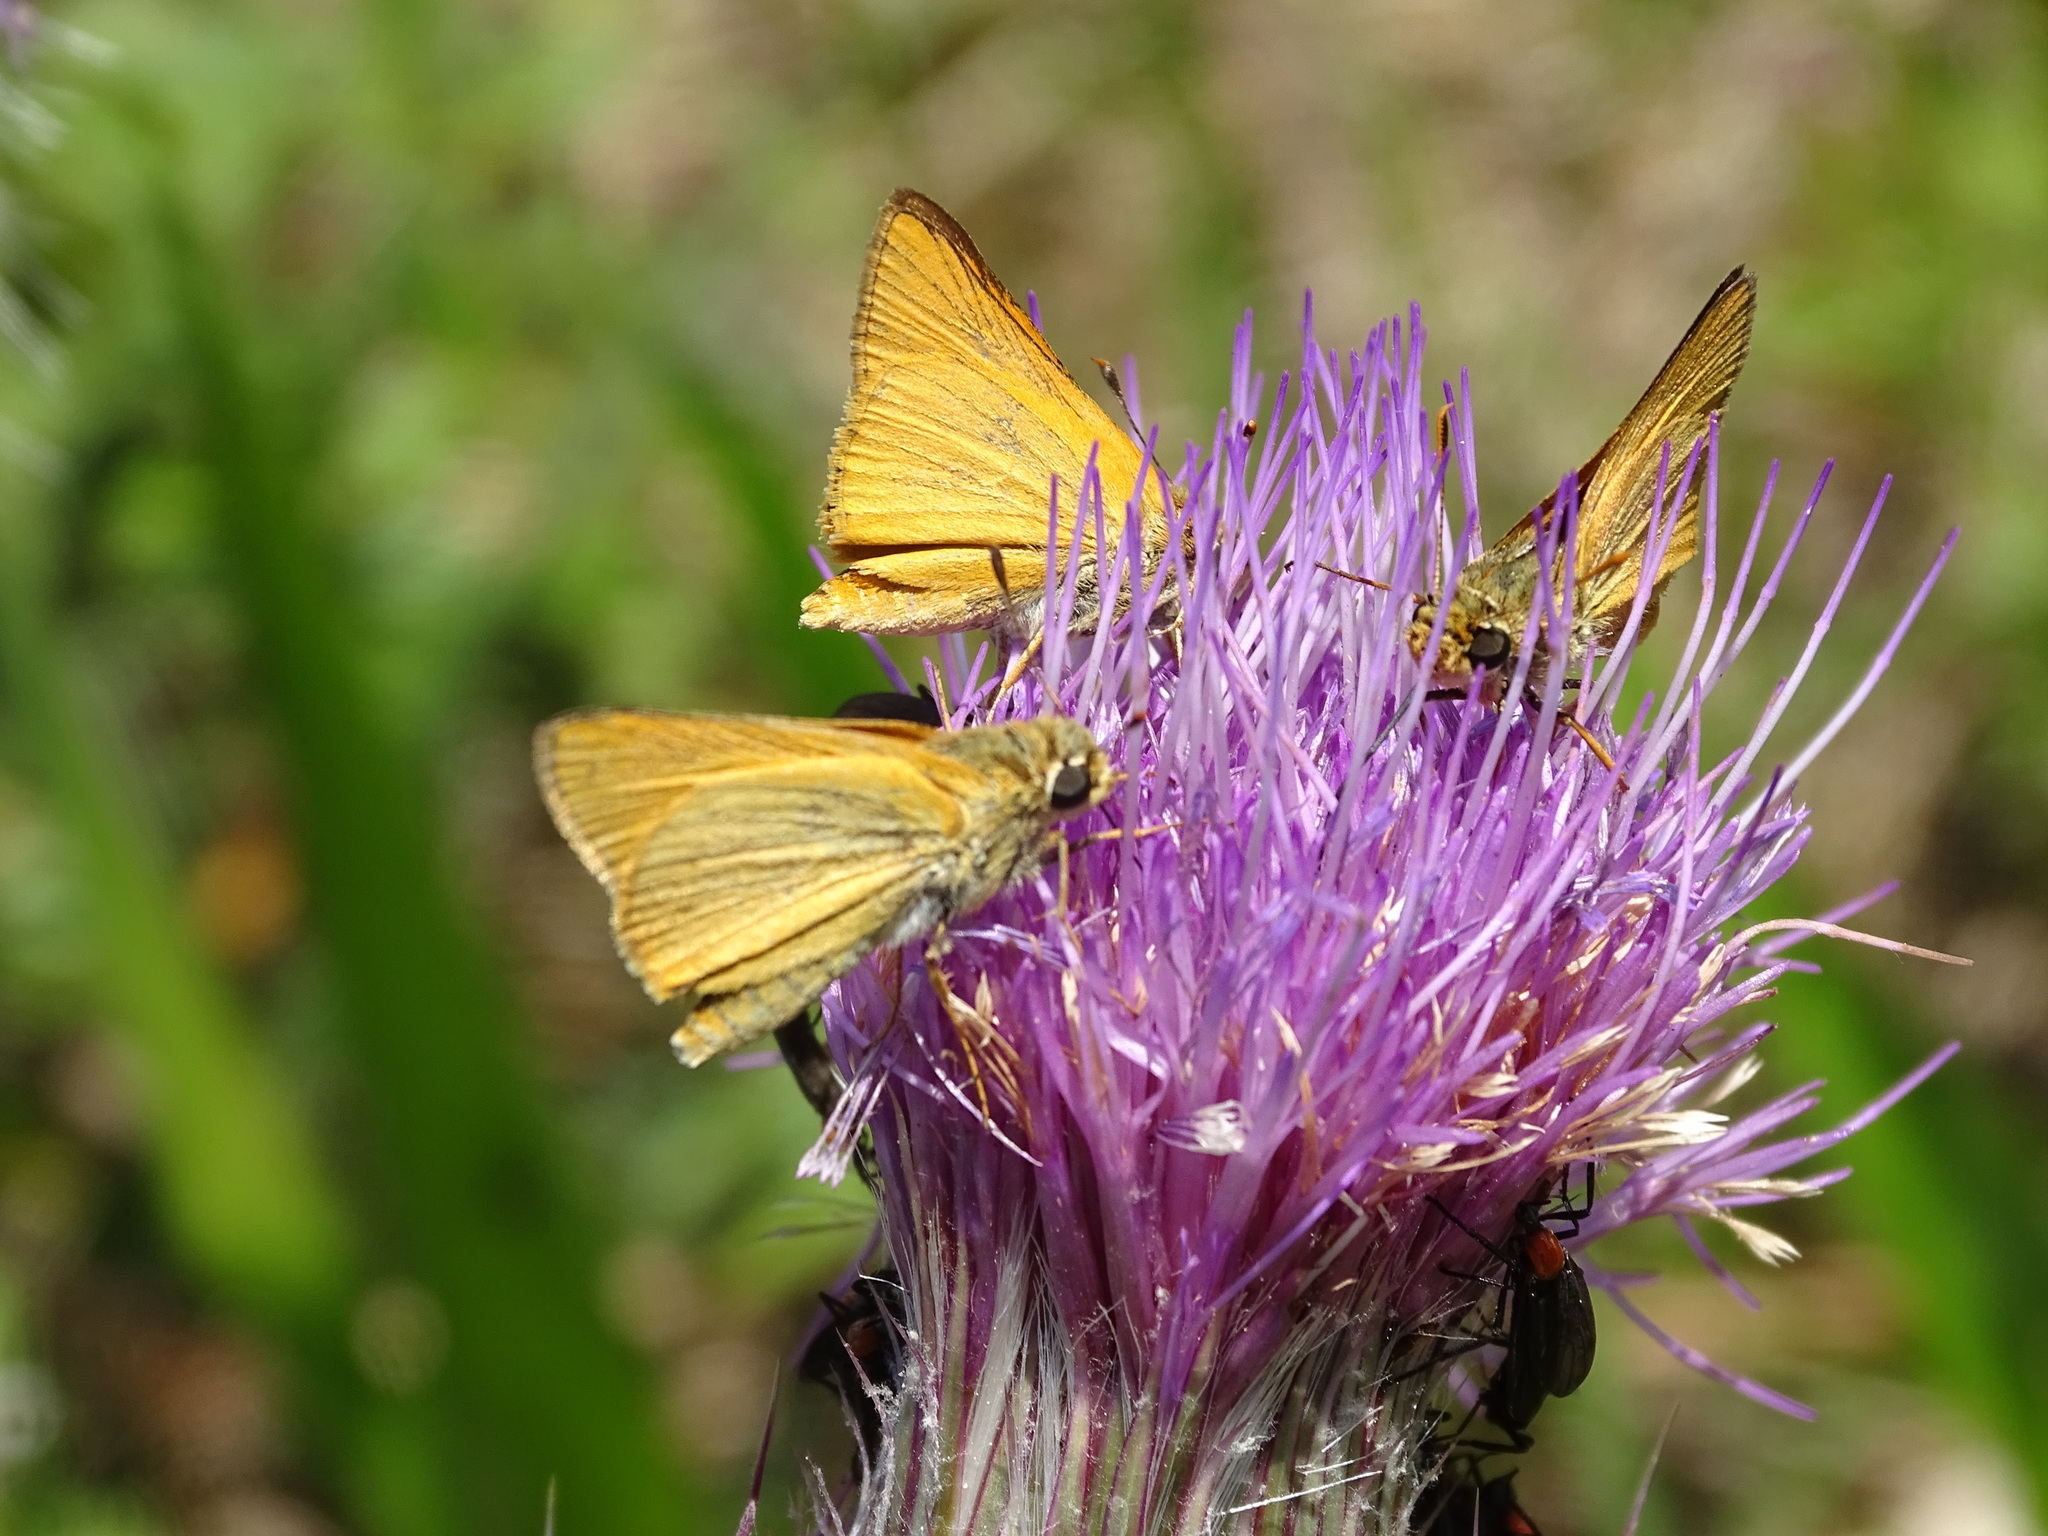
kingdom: Animalia
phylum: Arthropoda
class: Insecta
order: Lepidoptera
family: Hesperiidae
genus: Atrytone
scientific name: Atrytone delaware
